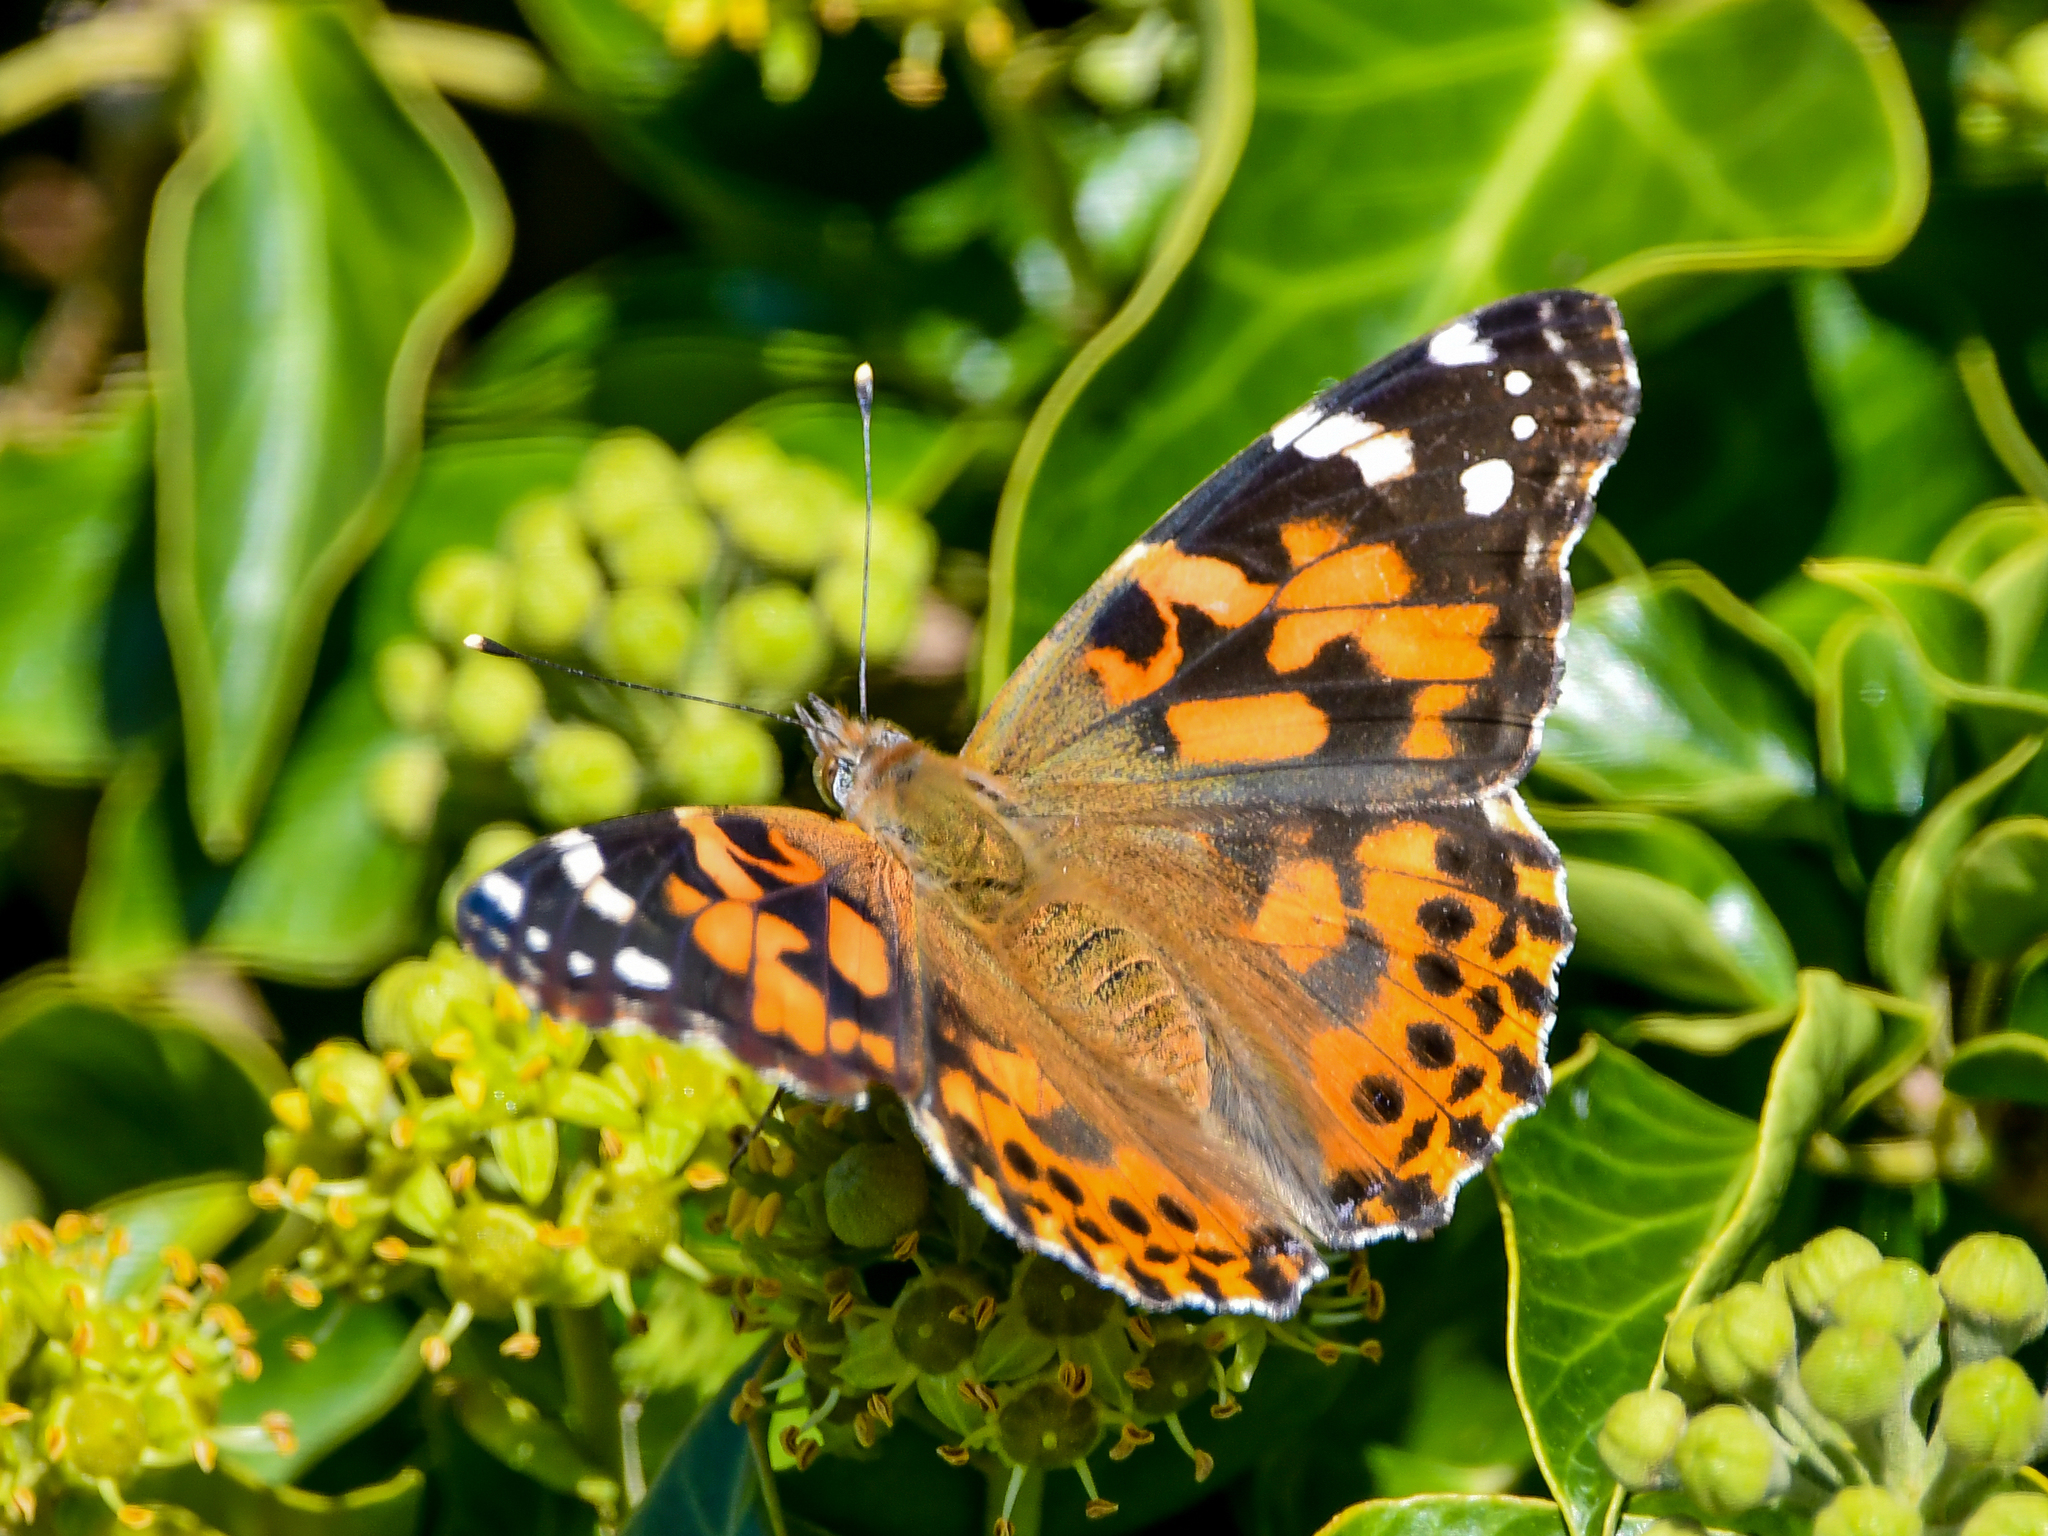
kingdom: Animalia
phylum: Arthropoda
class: Insecta
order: Lepidoptera
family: Nymphalidae
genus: Vanessa
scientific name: Vanessa cardui
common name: Painted lady
